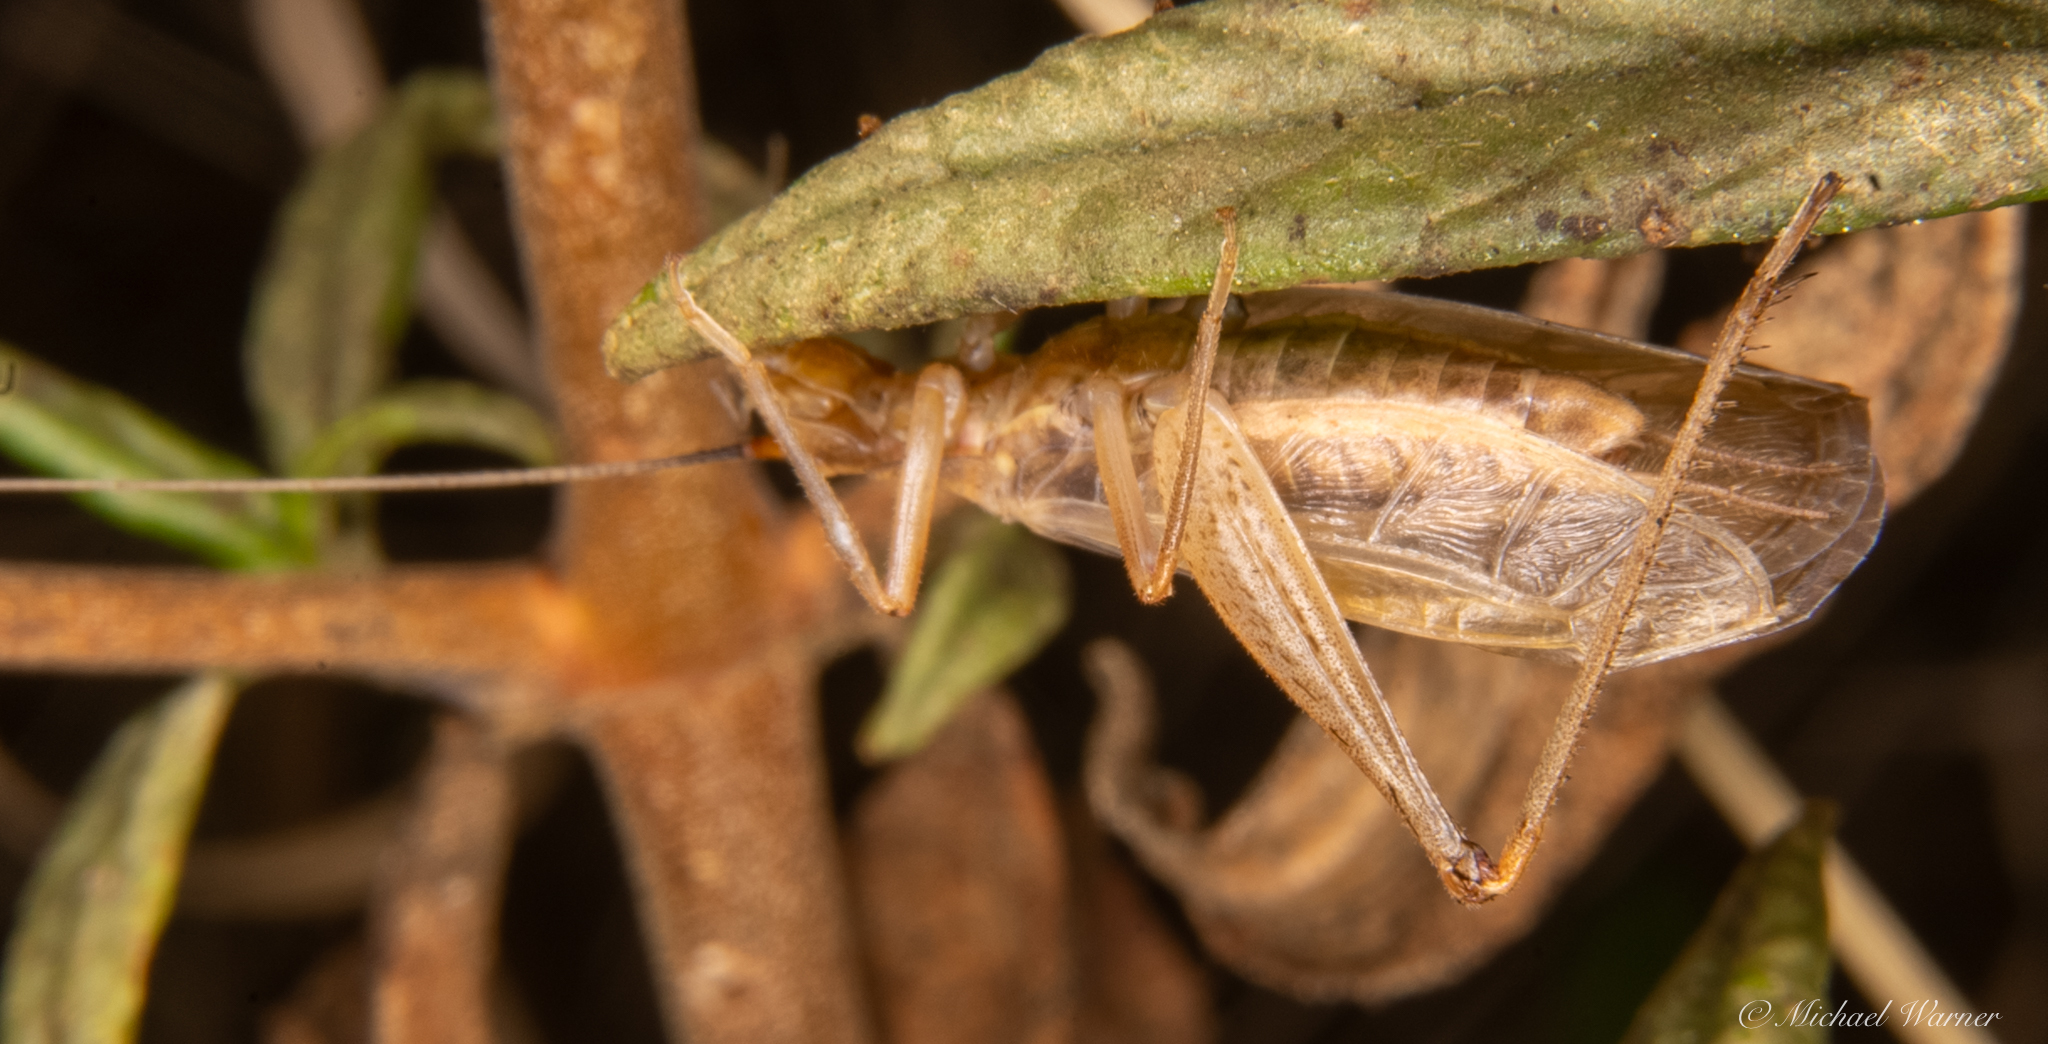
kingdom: Animalia
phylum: Arthropoda
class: Insecta
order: Orthoptera
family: Gryllidae
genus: Oecanthus
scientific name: Oecanthus californicus
